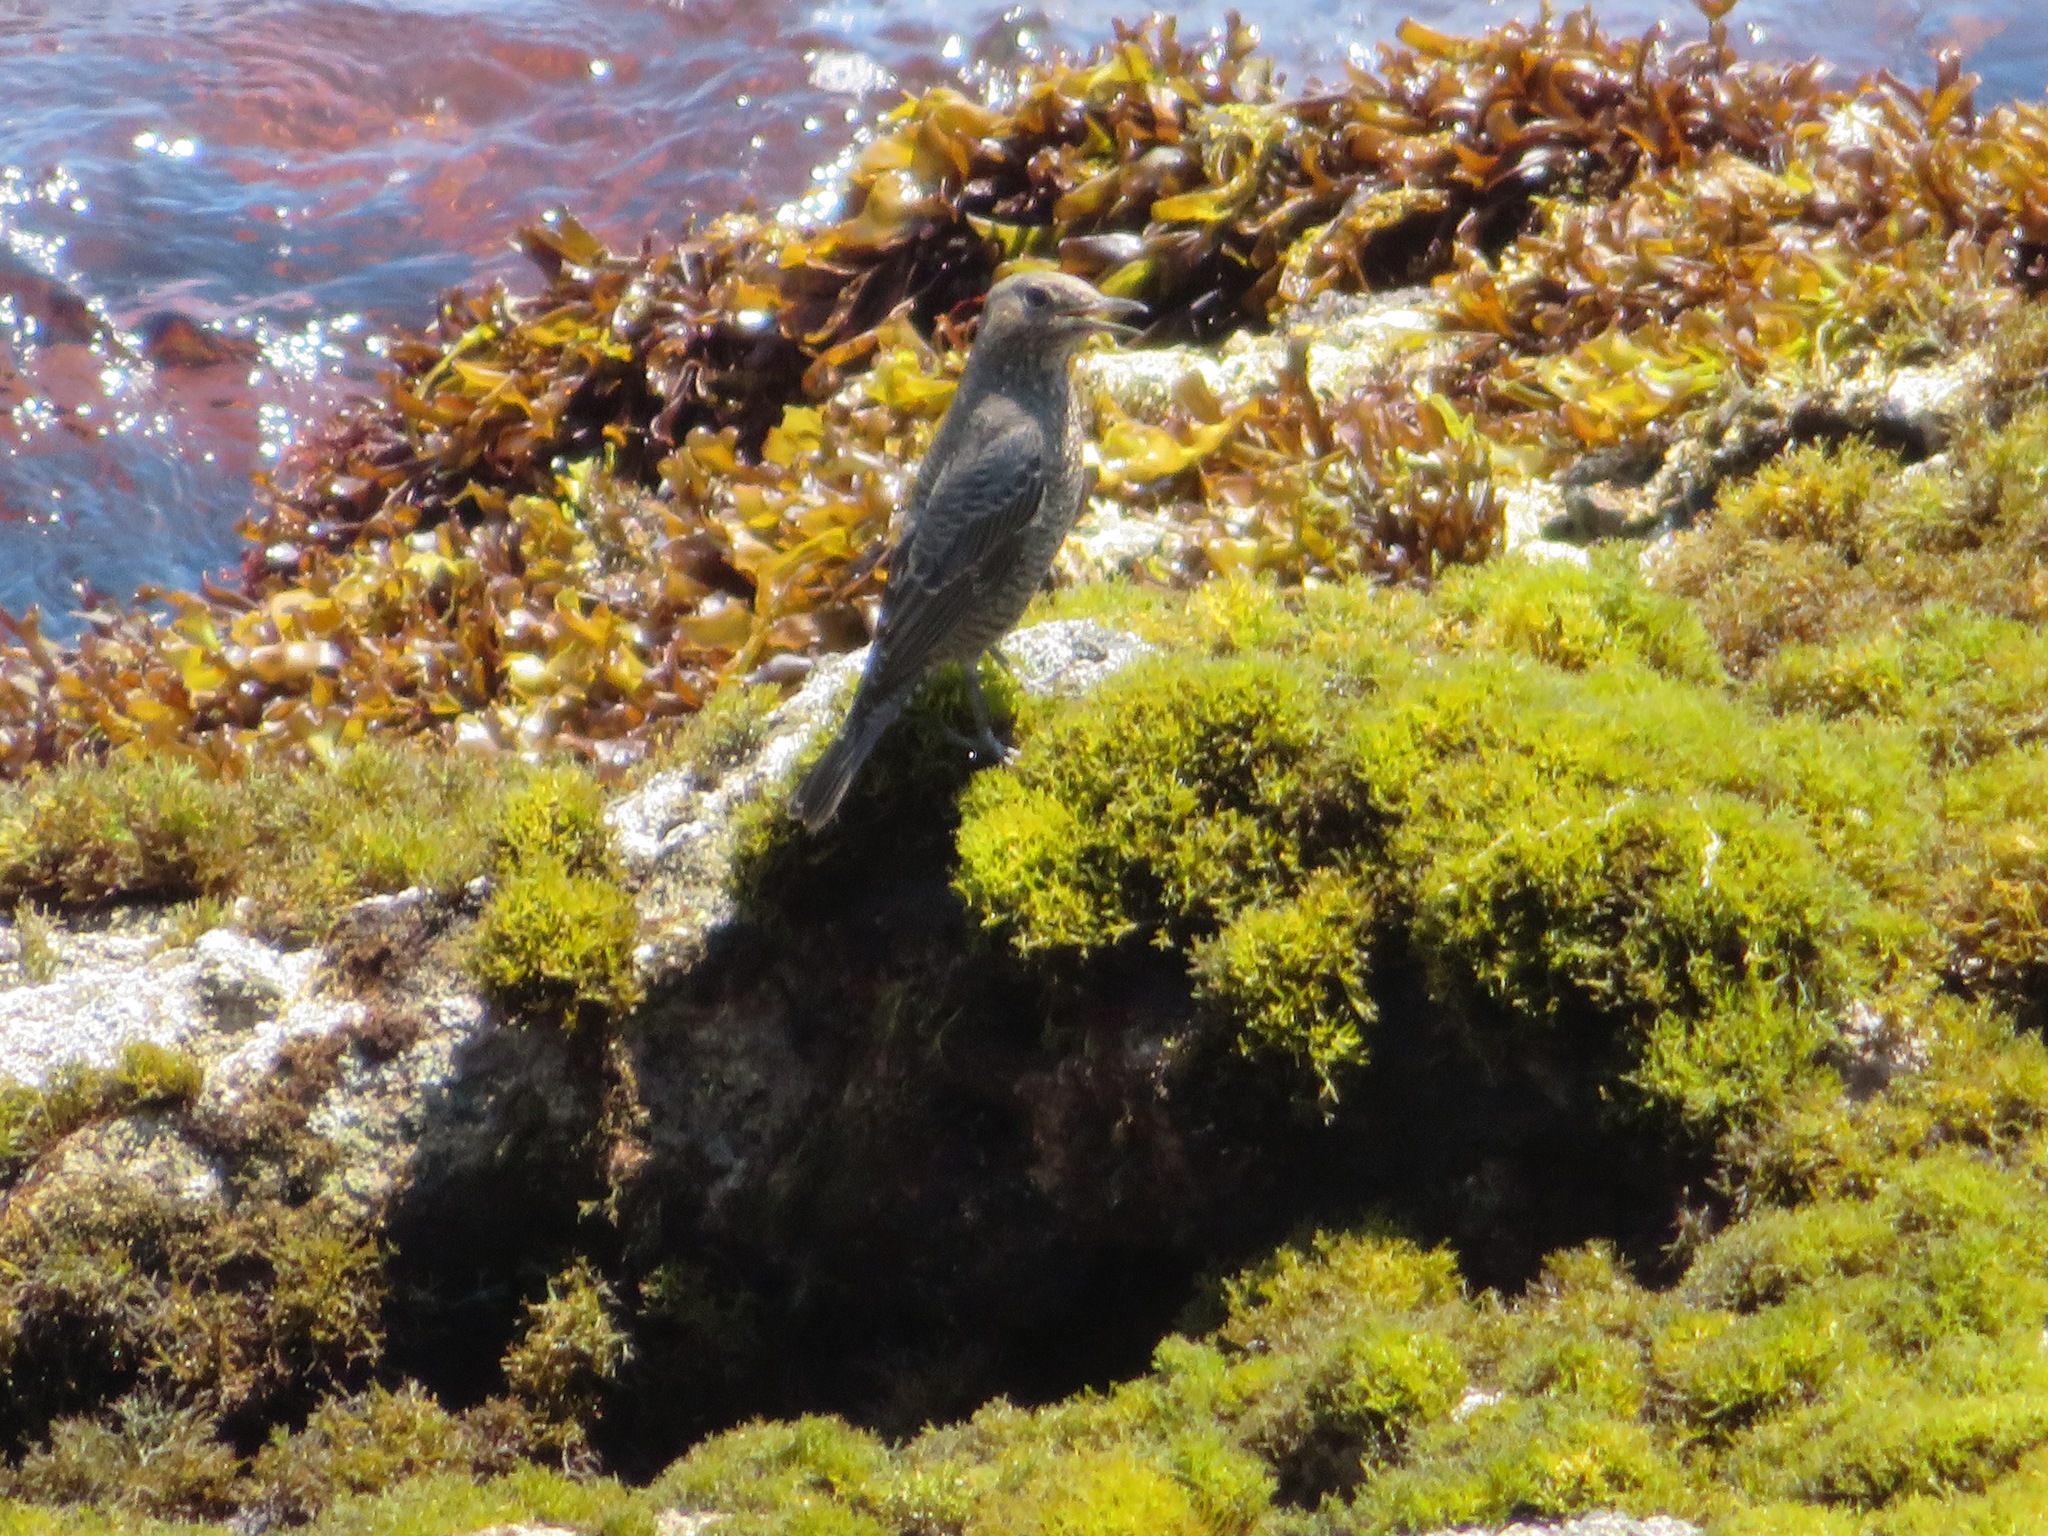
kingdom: Animalia
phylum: Chordata
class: Aves
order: Passeriformes
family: Muscicapidae
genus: Monticola
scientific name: Monticola solitarius
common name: Blue rock thrush
